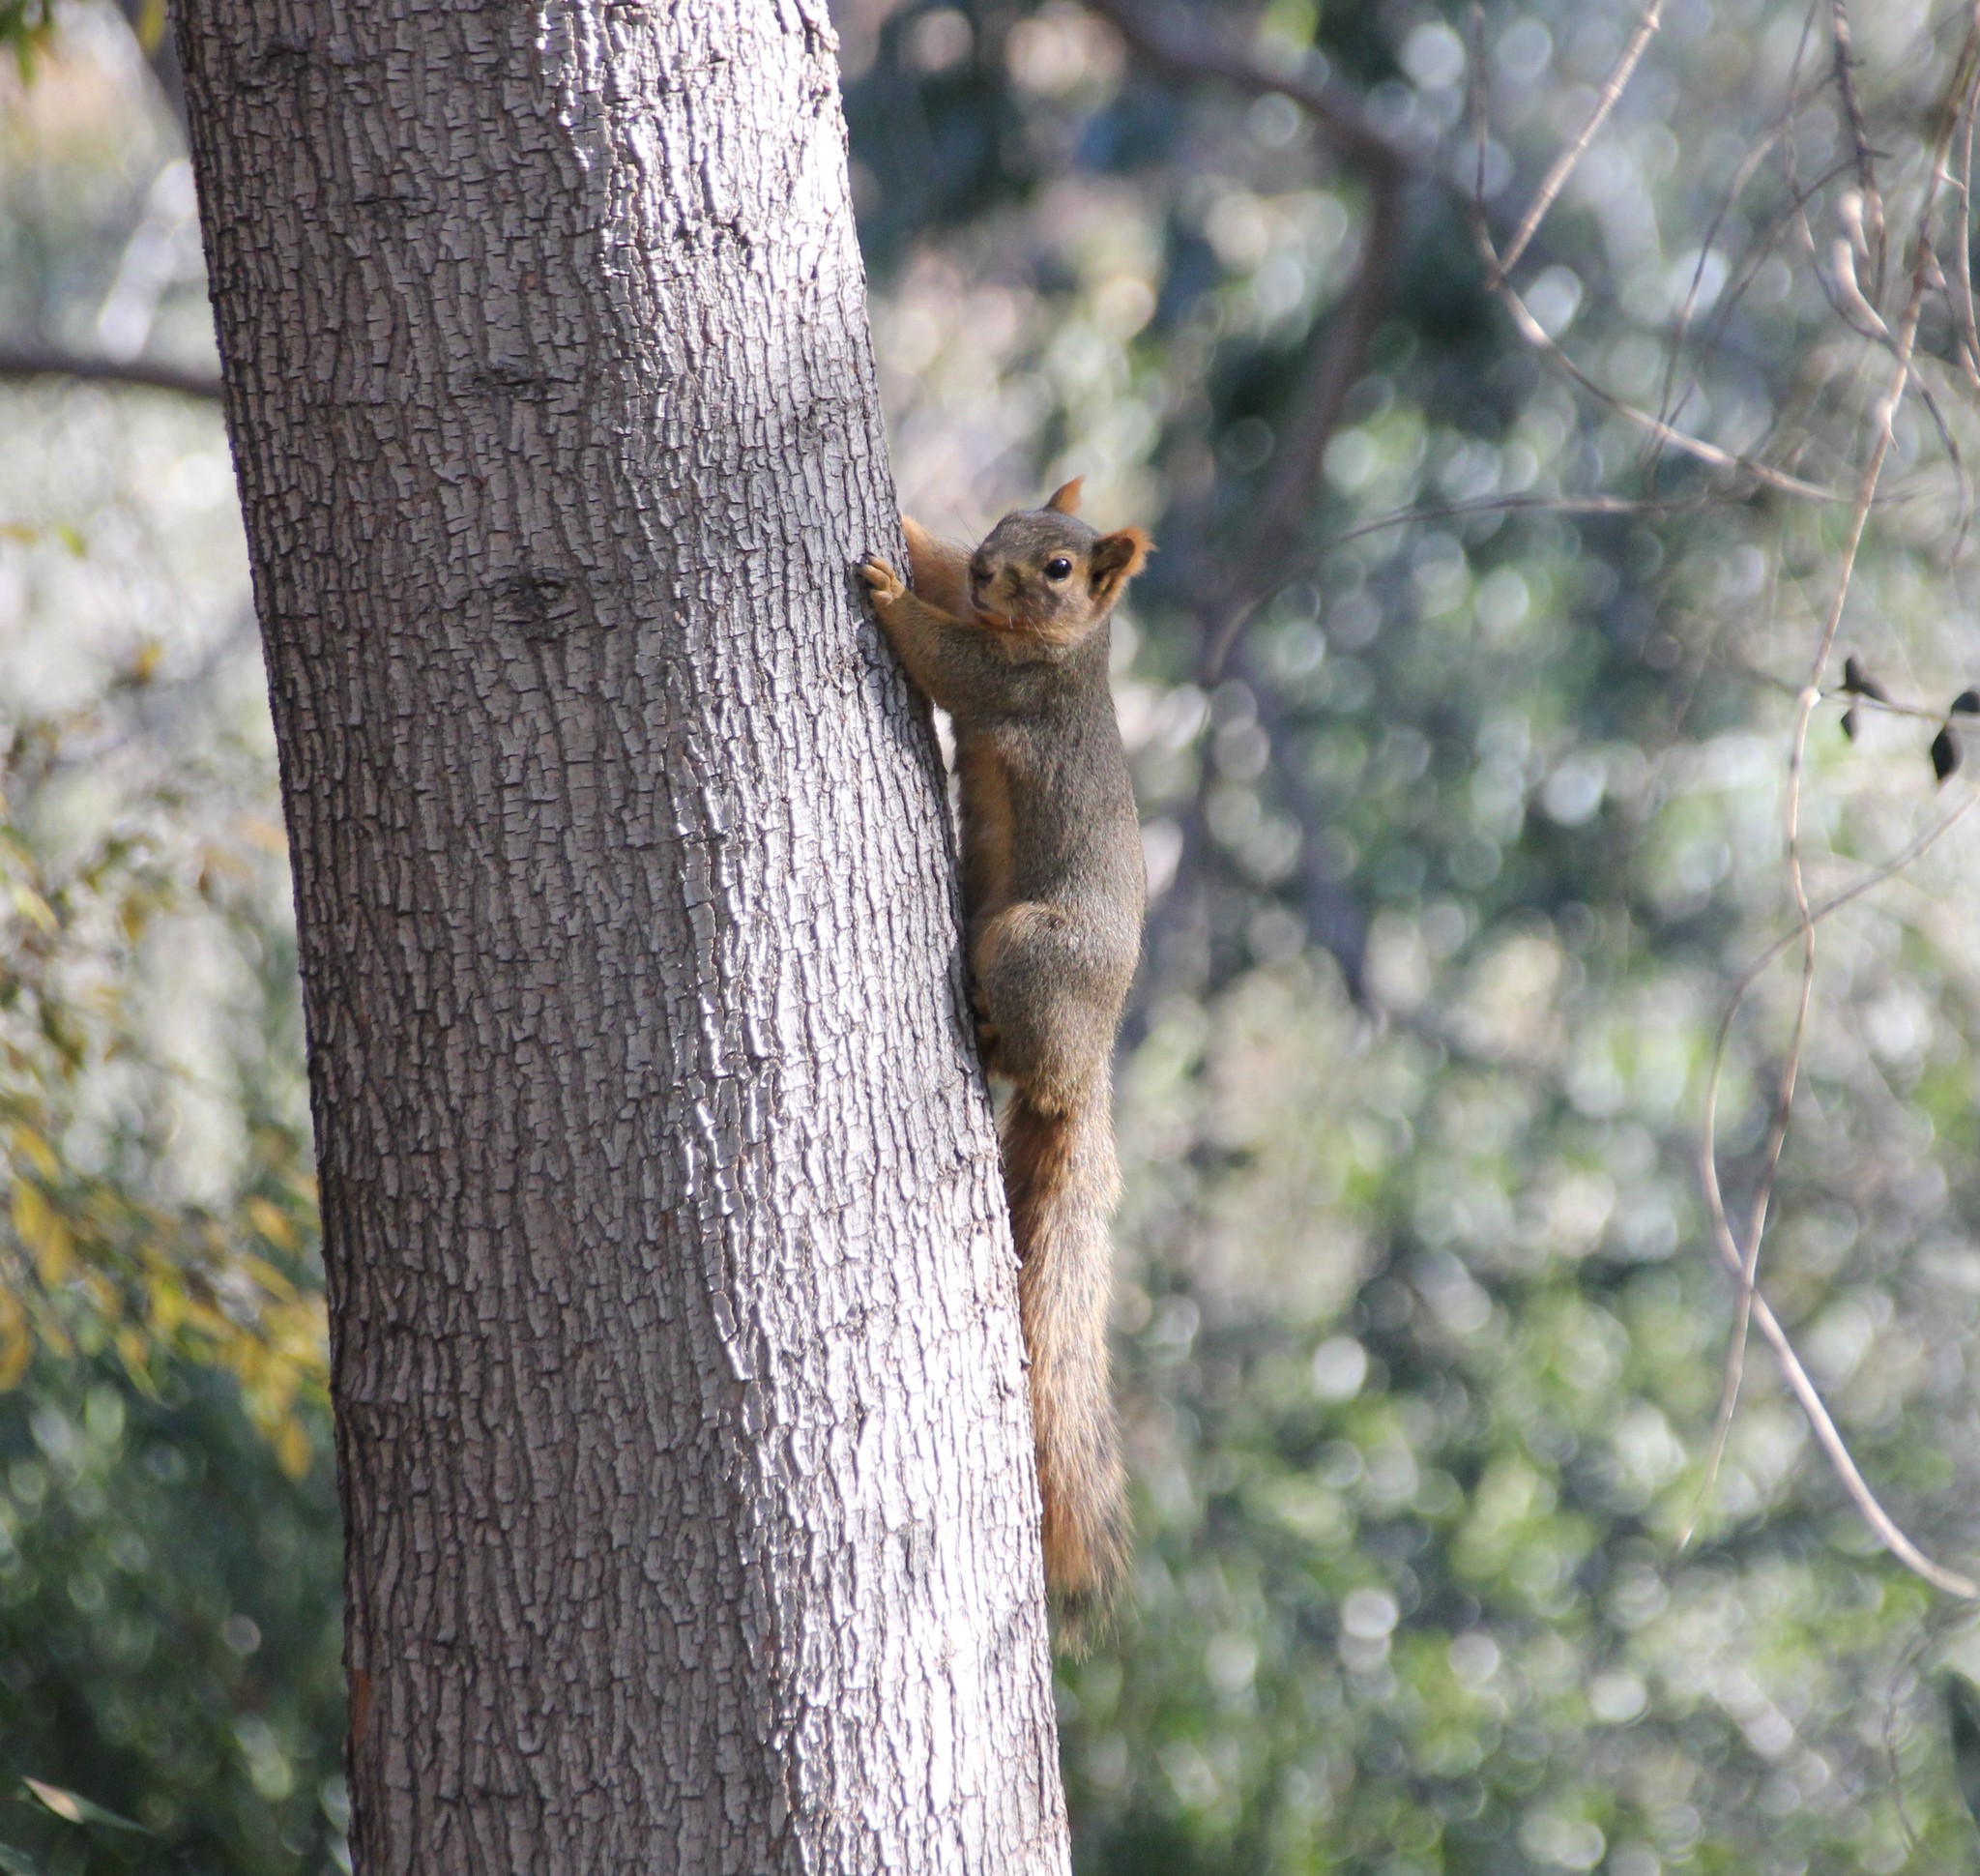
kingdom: Animalia
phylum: Chordata
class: Mammalia
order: Rodentia
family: Sciuridae
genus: Sciurus
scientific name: Sciurus niger
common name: Fox squirrel
